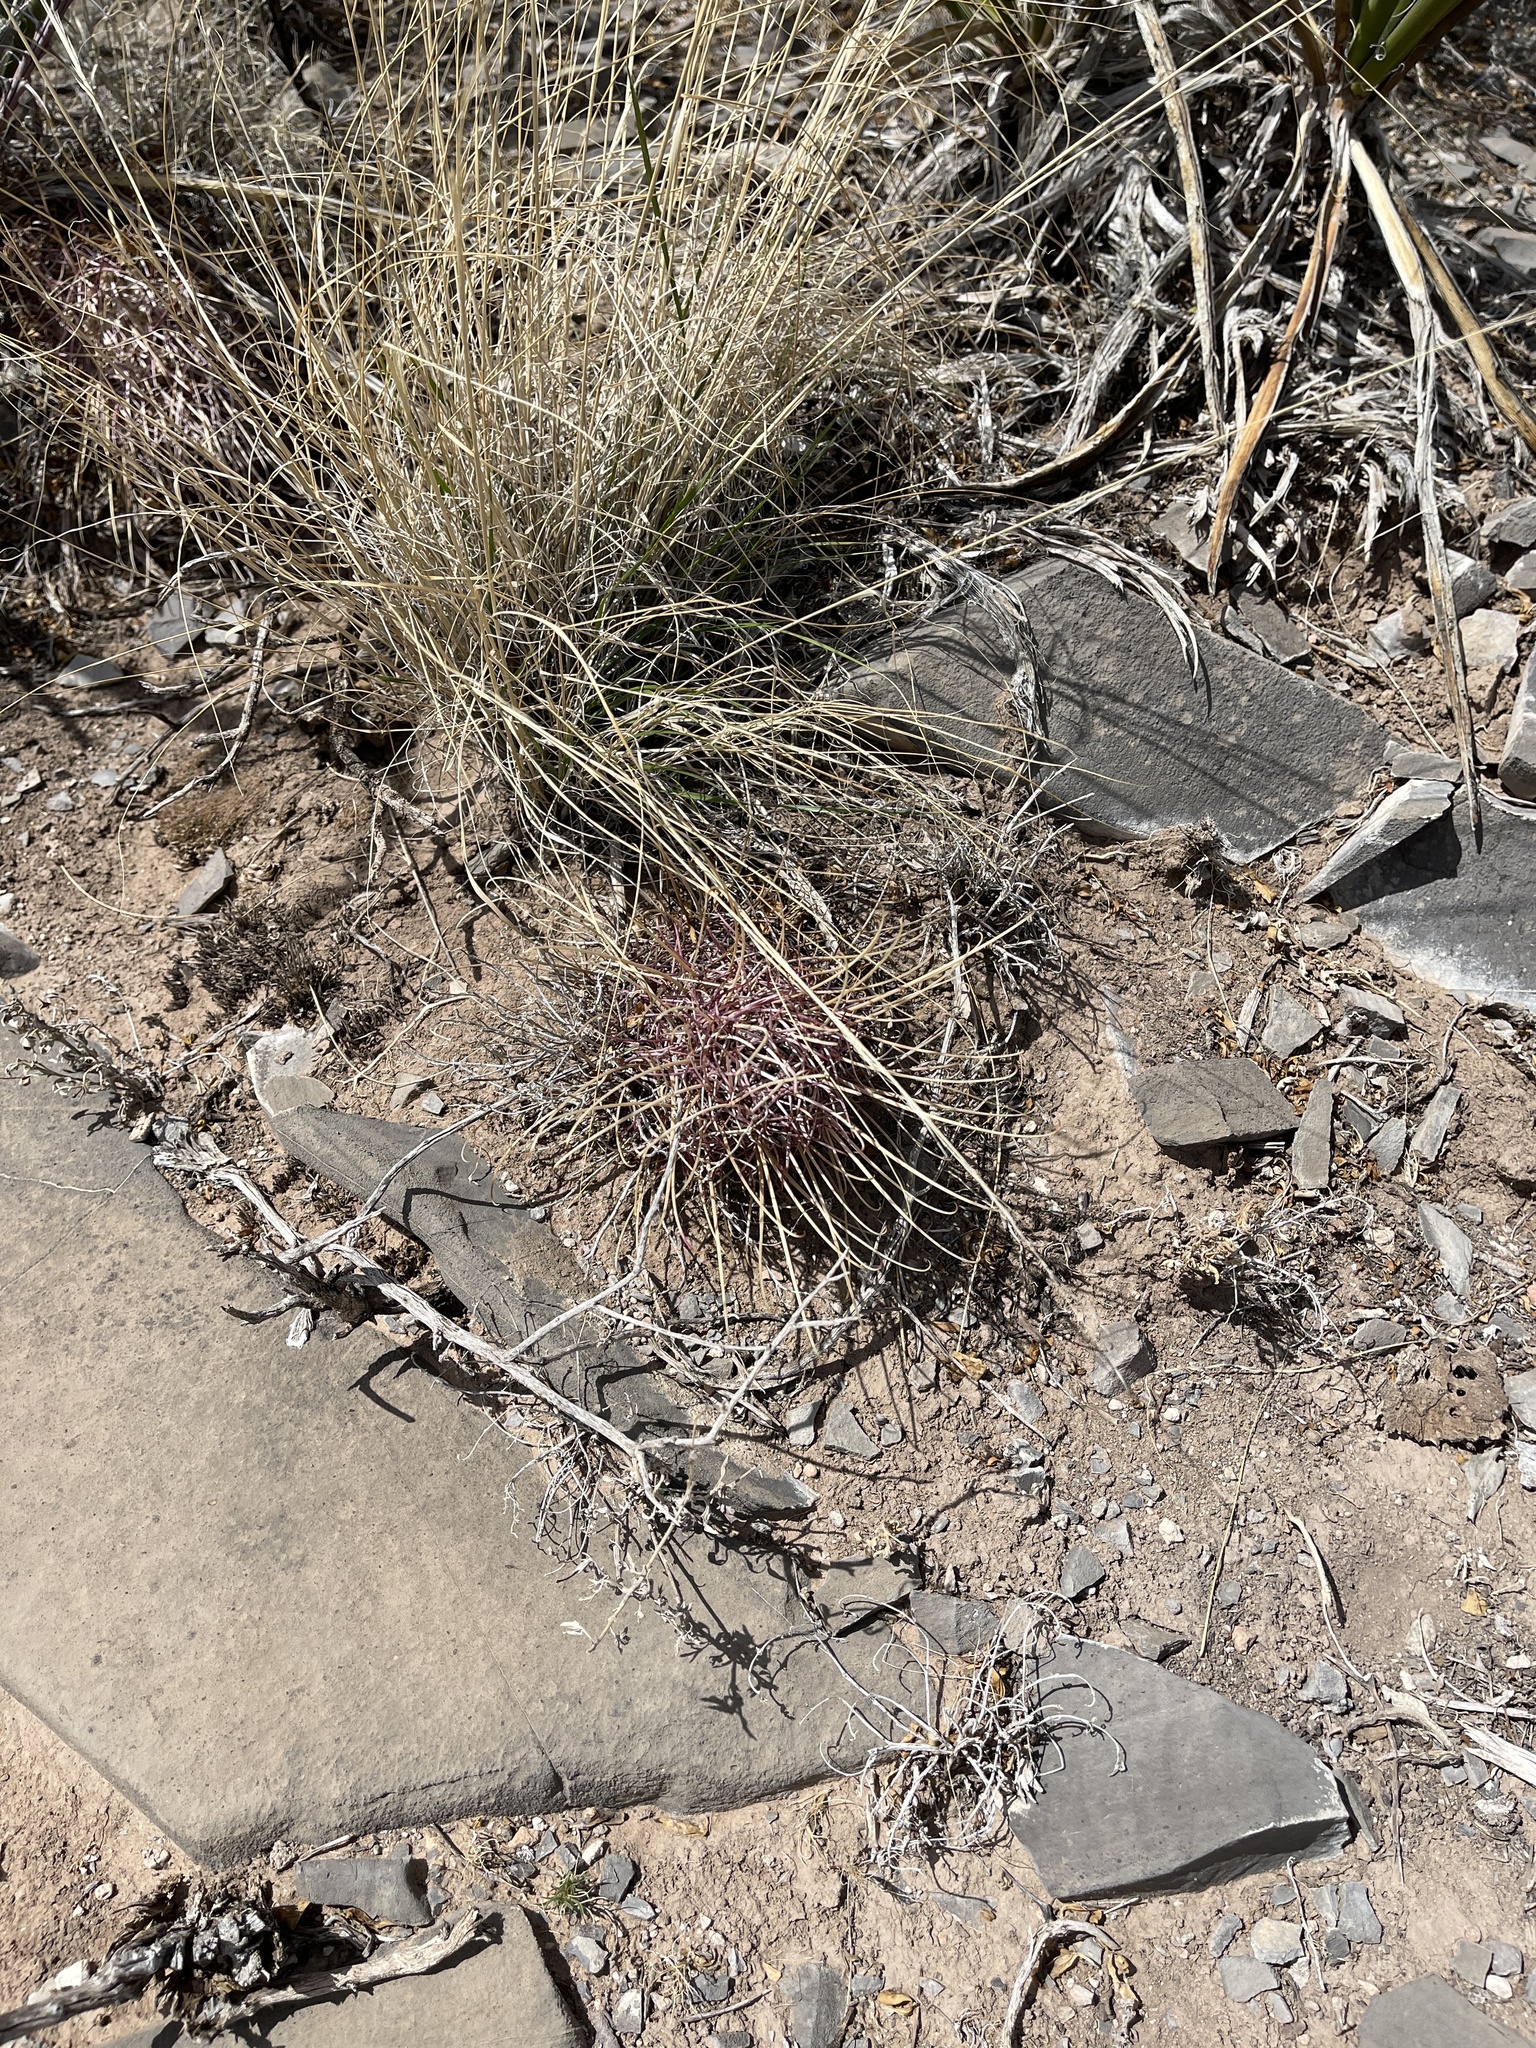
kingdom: Plantae
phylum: Tracheophyta
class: Magnoliopsida
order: Caryophyllales
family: Cactaceae
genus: Ferocactus
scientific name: Ferocactus uncinatus
